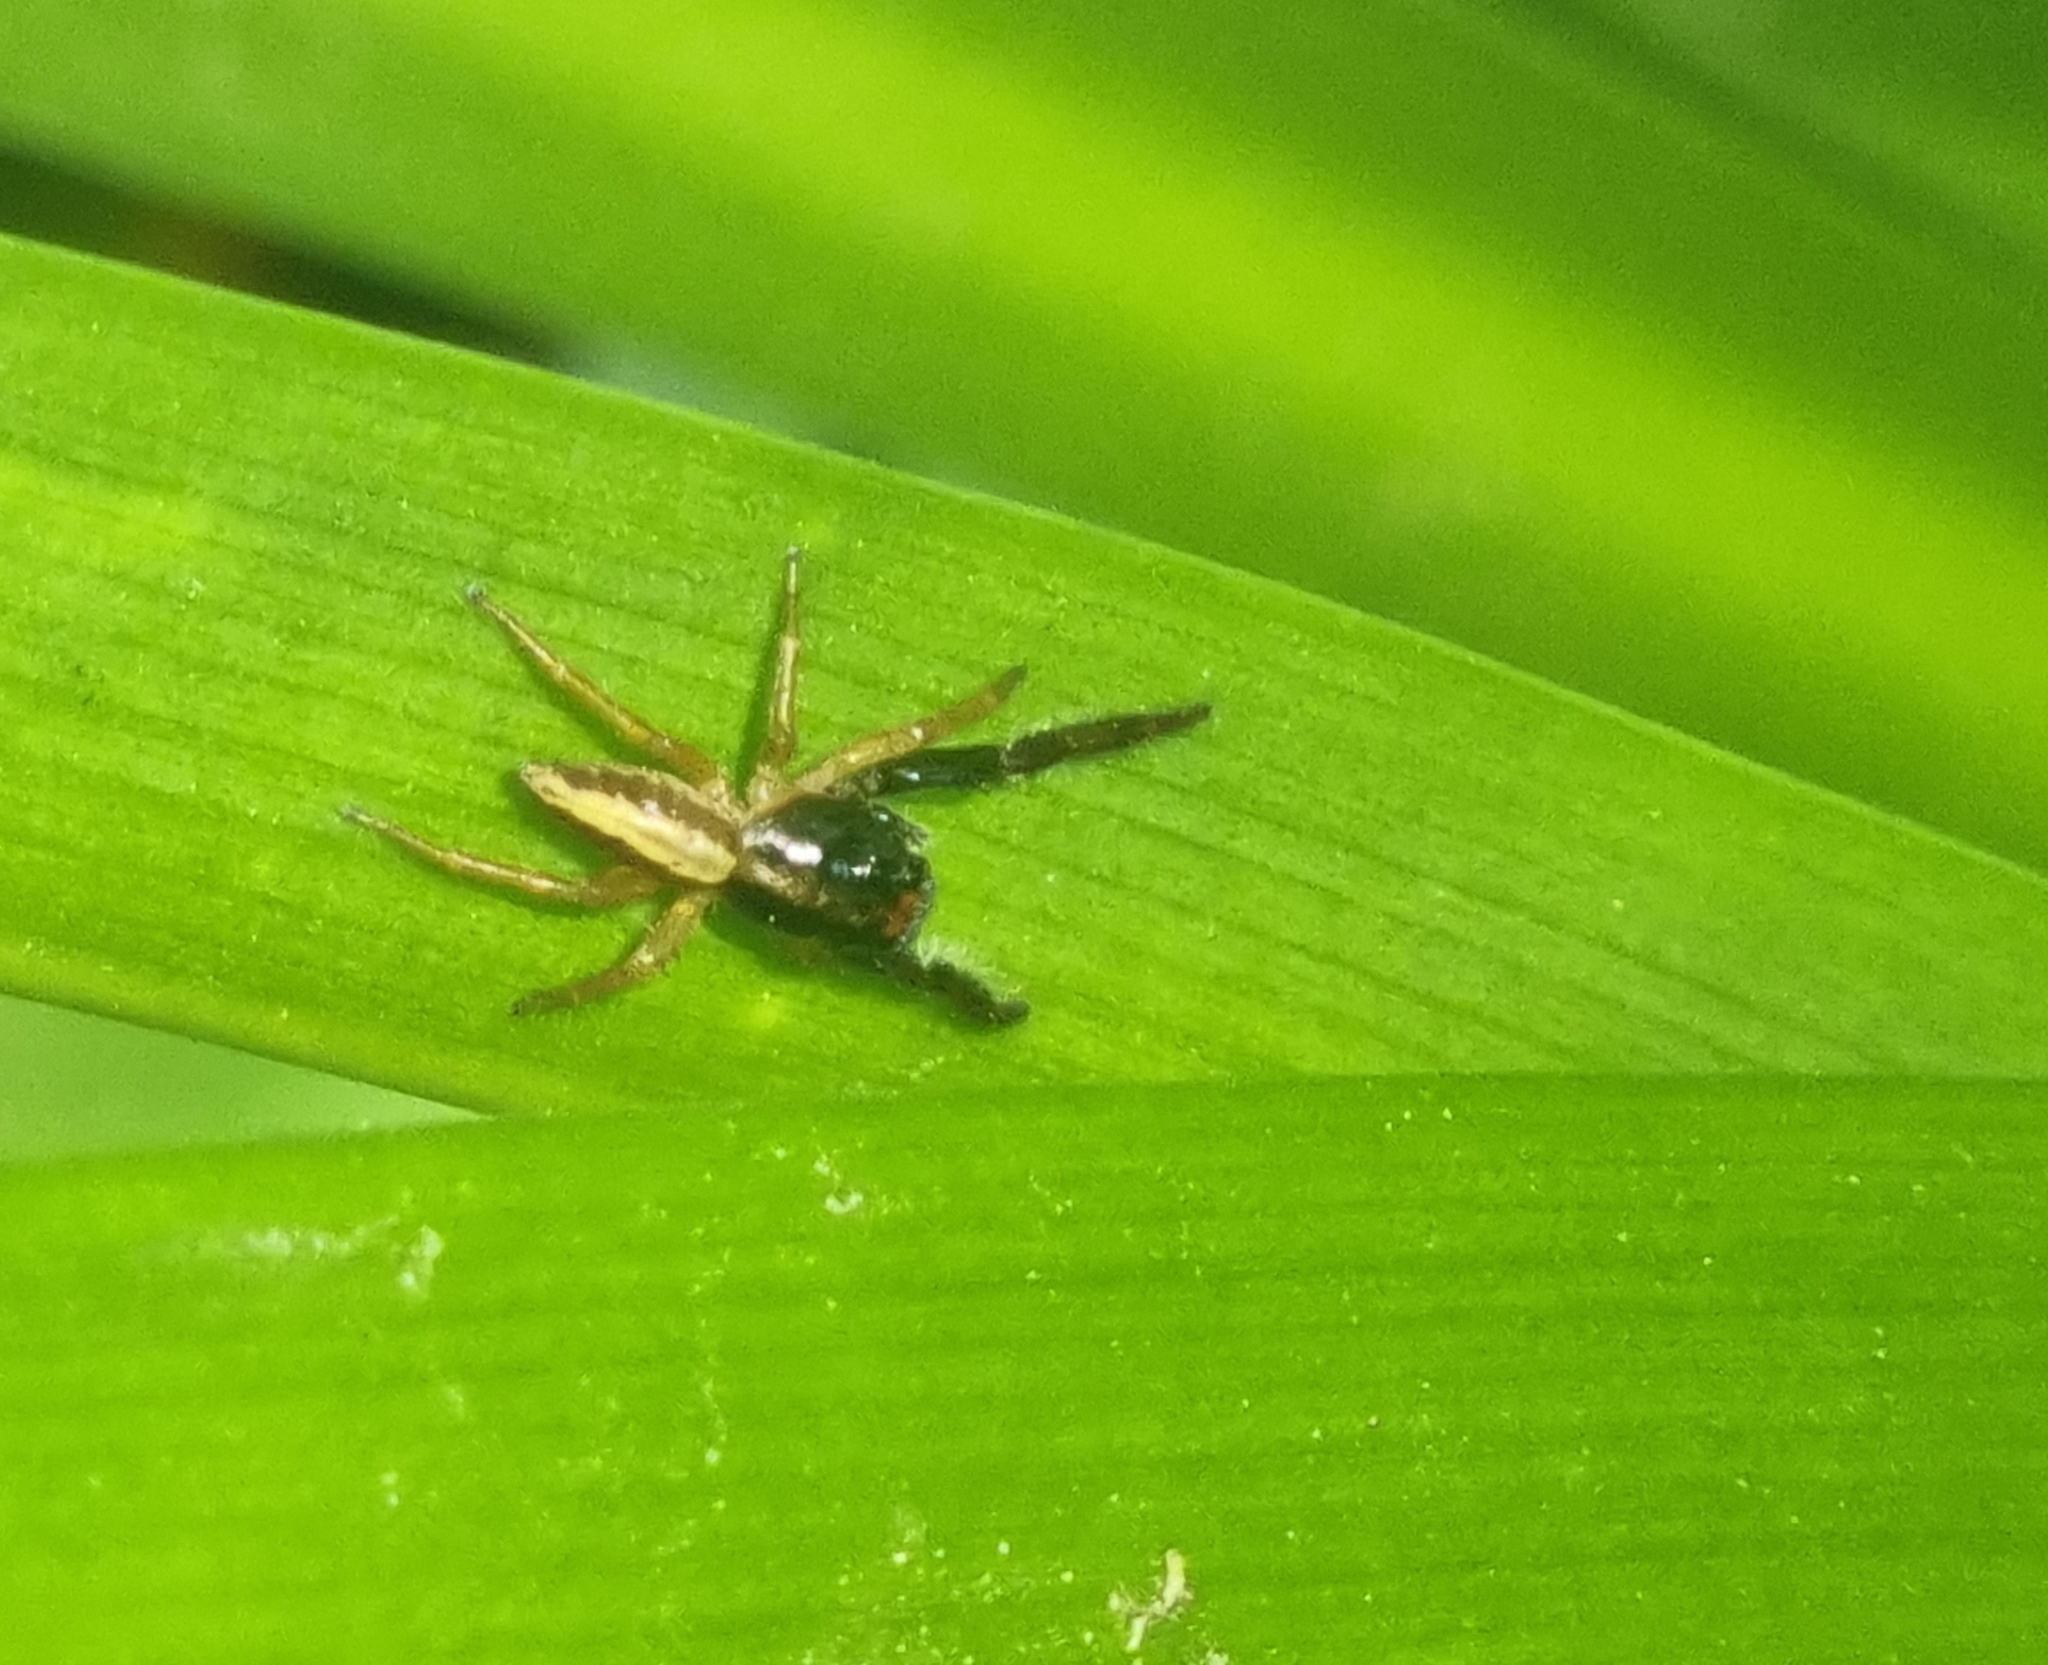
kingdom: Animalia
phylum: Arthropoda
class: Arachnida
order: Araneae
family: Salticidae
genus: Trite
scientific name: Trite planiceps
